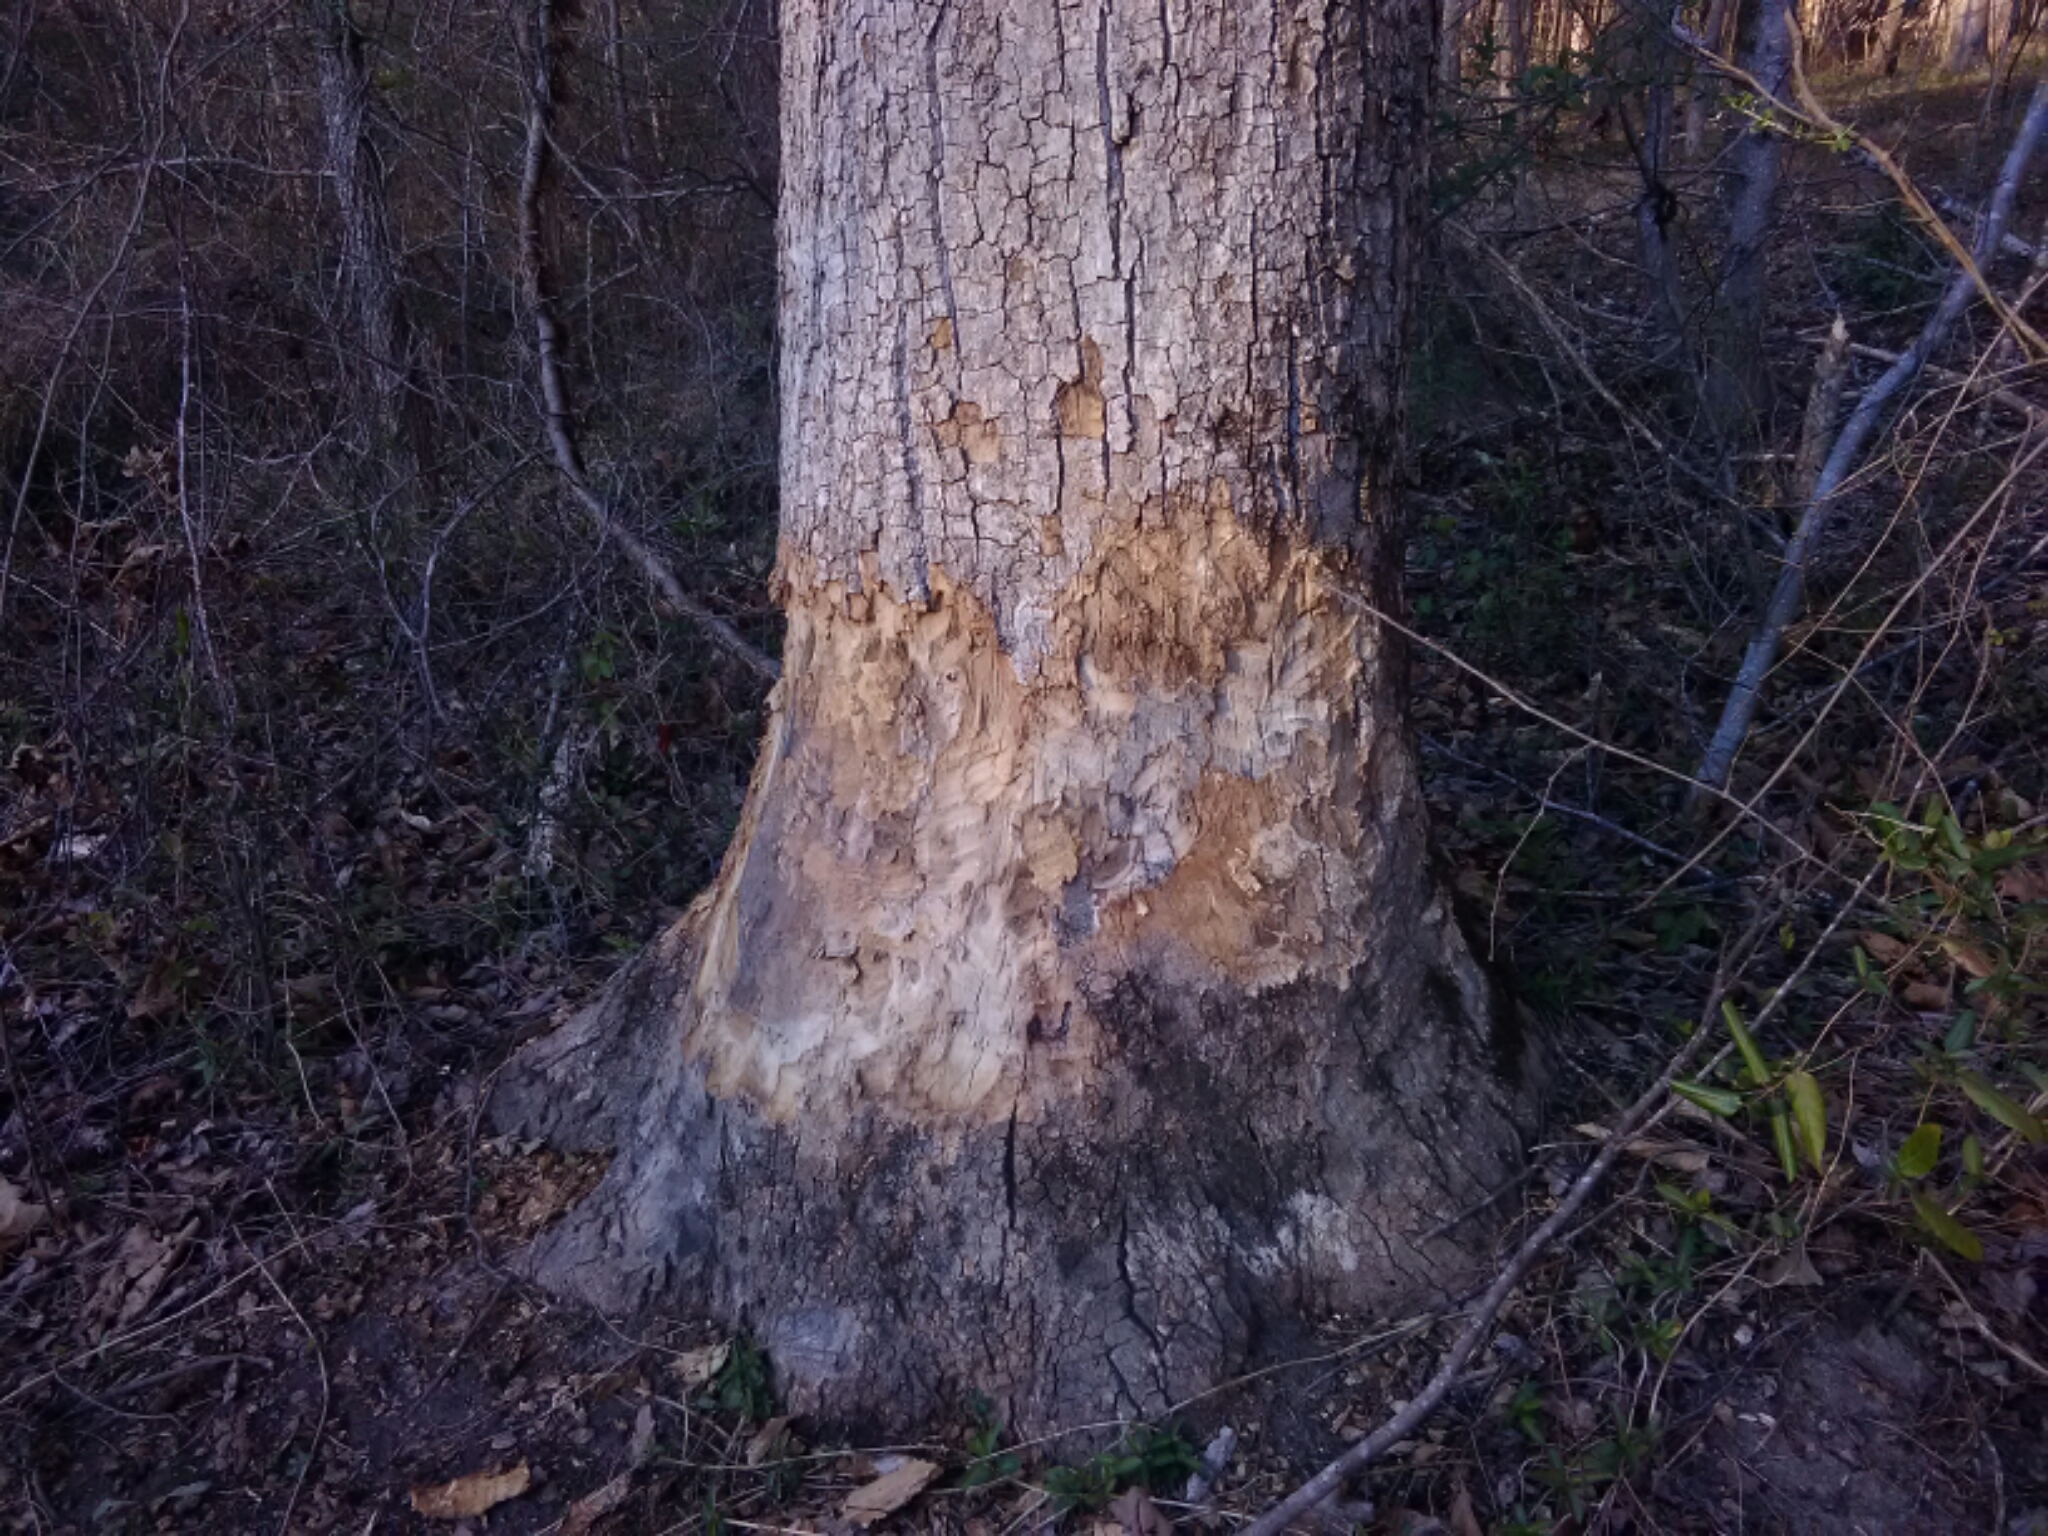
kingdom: Animalia
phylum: Chordata
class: Mammalia
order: Rodentia
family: Castoridae
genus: Castor
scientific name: Castor canadensis
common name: American beaver
